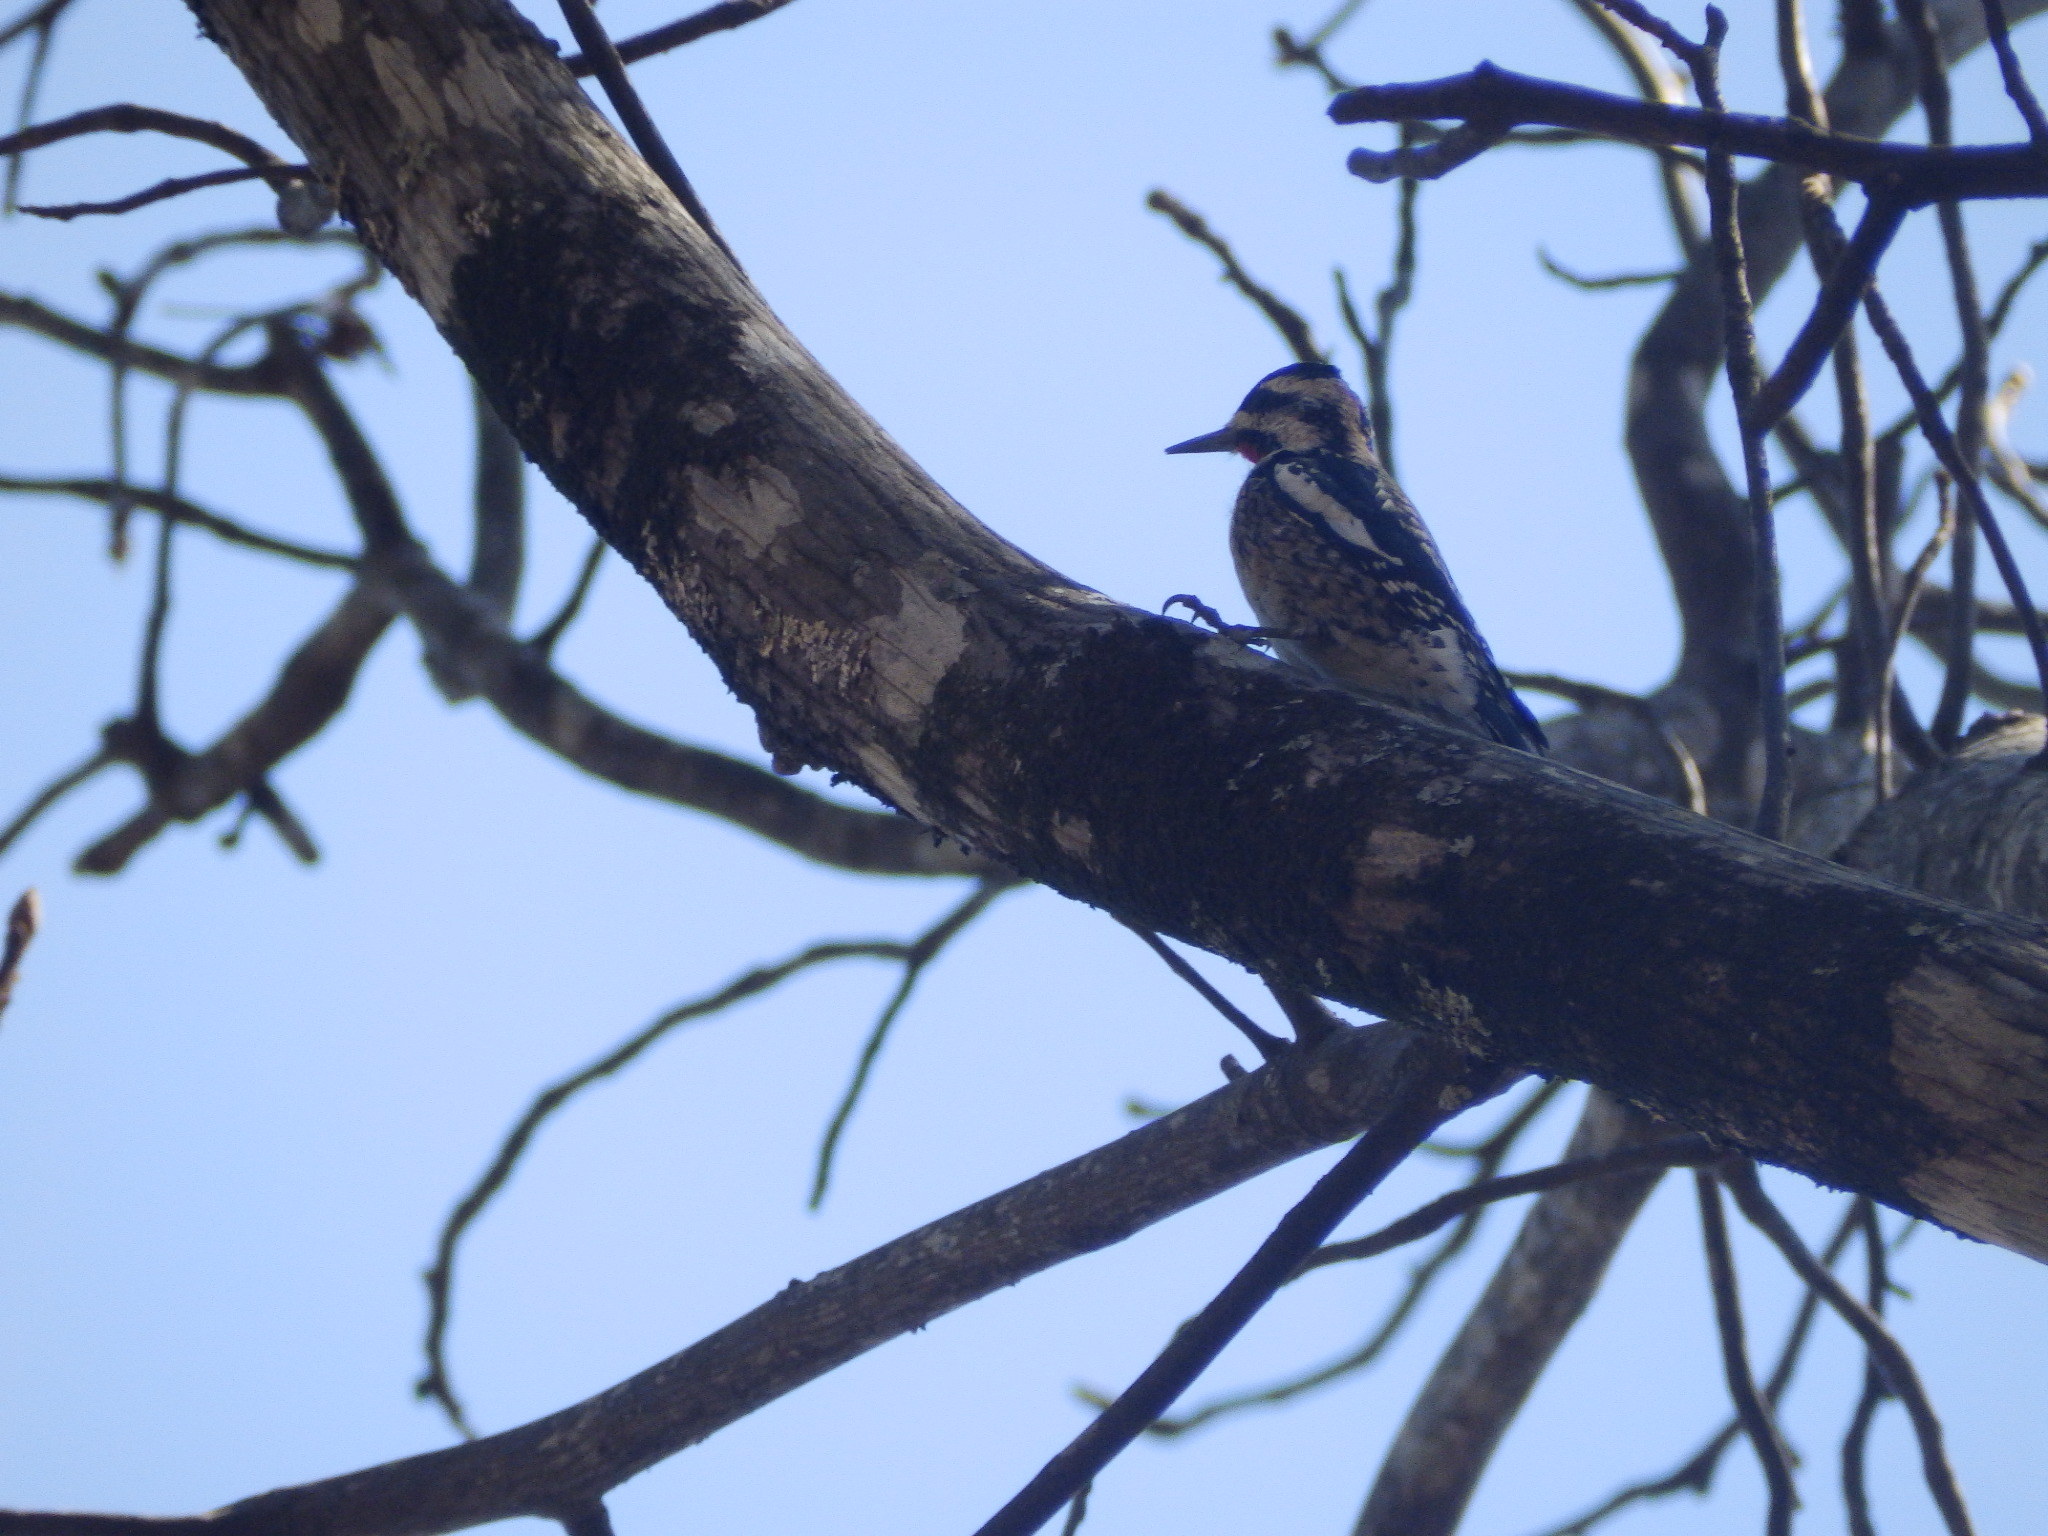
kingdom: Animalia
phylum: Chordata
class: Aves
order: Piciformes
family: Picidae
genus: Sphyrapicus
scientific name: Sphyrapicus varius
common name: Yellow-bellied sapsucker
